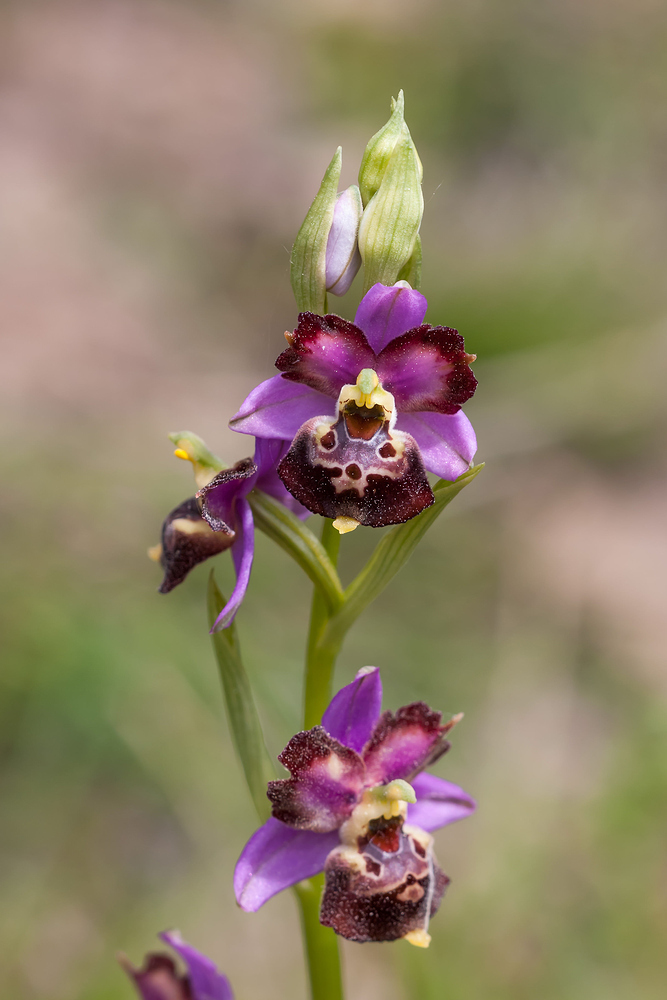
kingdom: Plantae
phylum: Tracheophyta
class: Liliopsida
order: Asparagales
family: Orchidaceae
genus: Ophrys
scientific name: Ophrys holosericea
